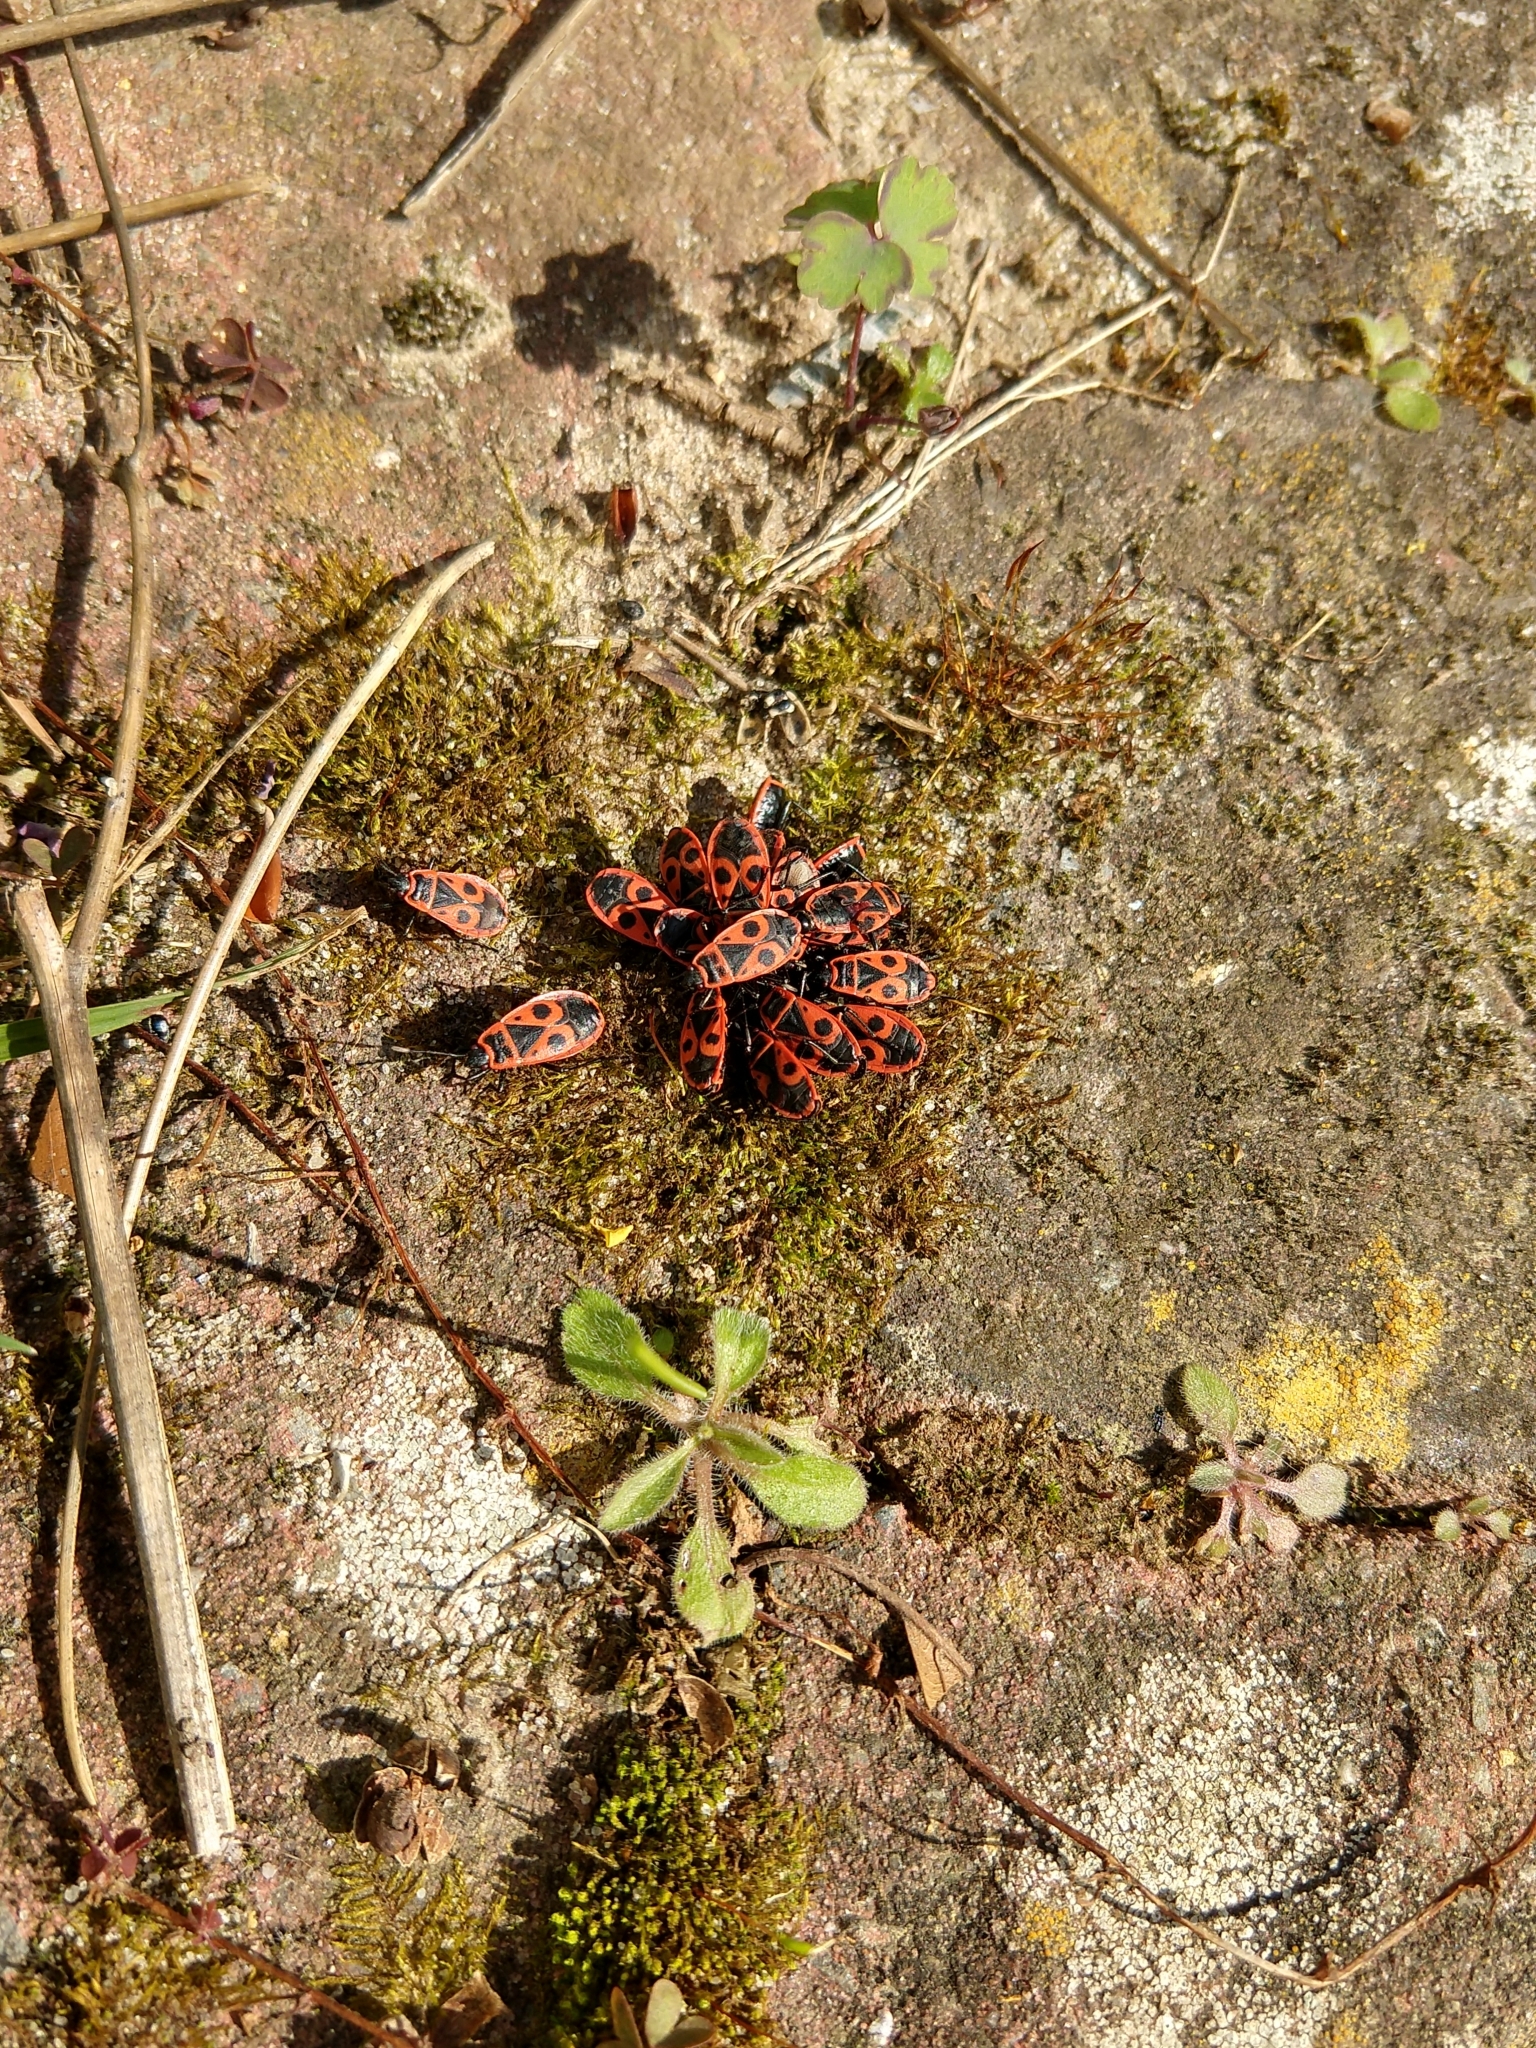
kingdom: Animalia
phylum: Arthropoda
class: Insecta
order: Hemiptera
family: Pyrrhocoridae
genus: Pyrrhocoris
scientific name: Pyrrhocoris apterus
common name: Firebug
